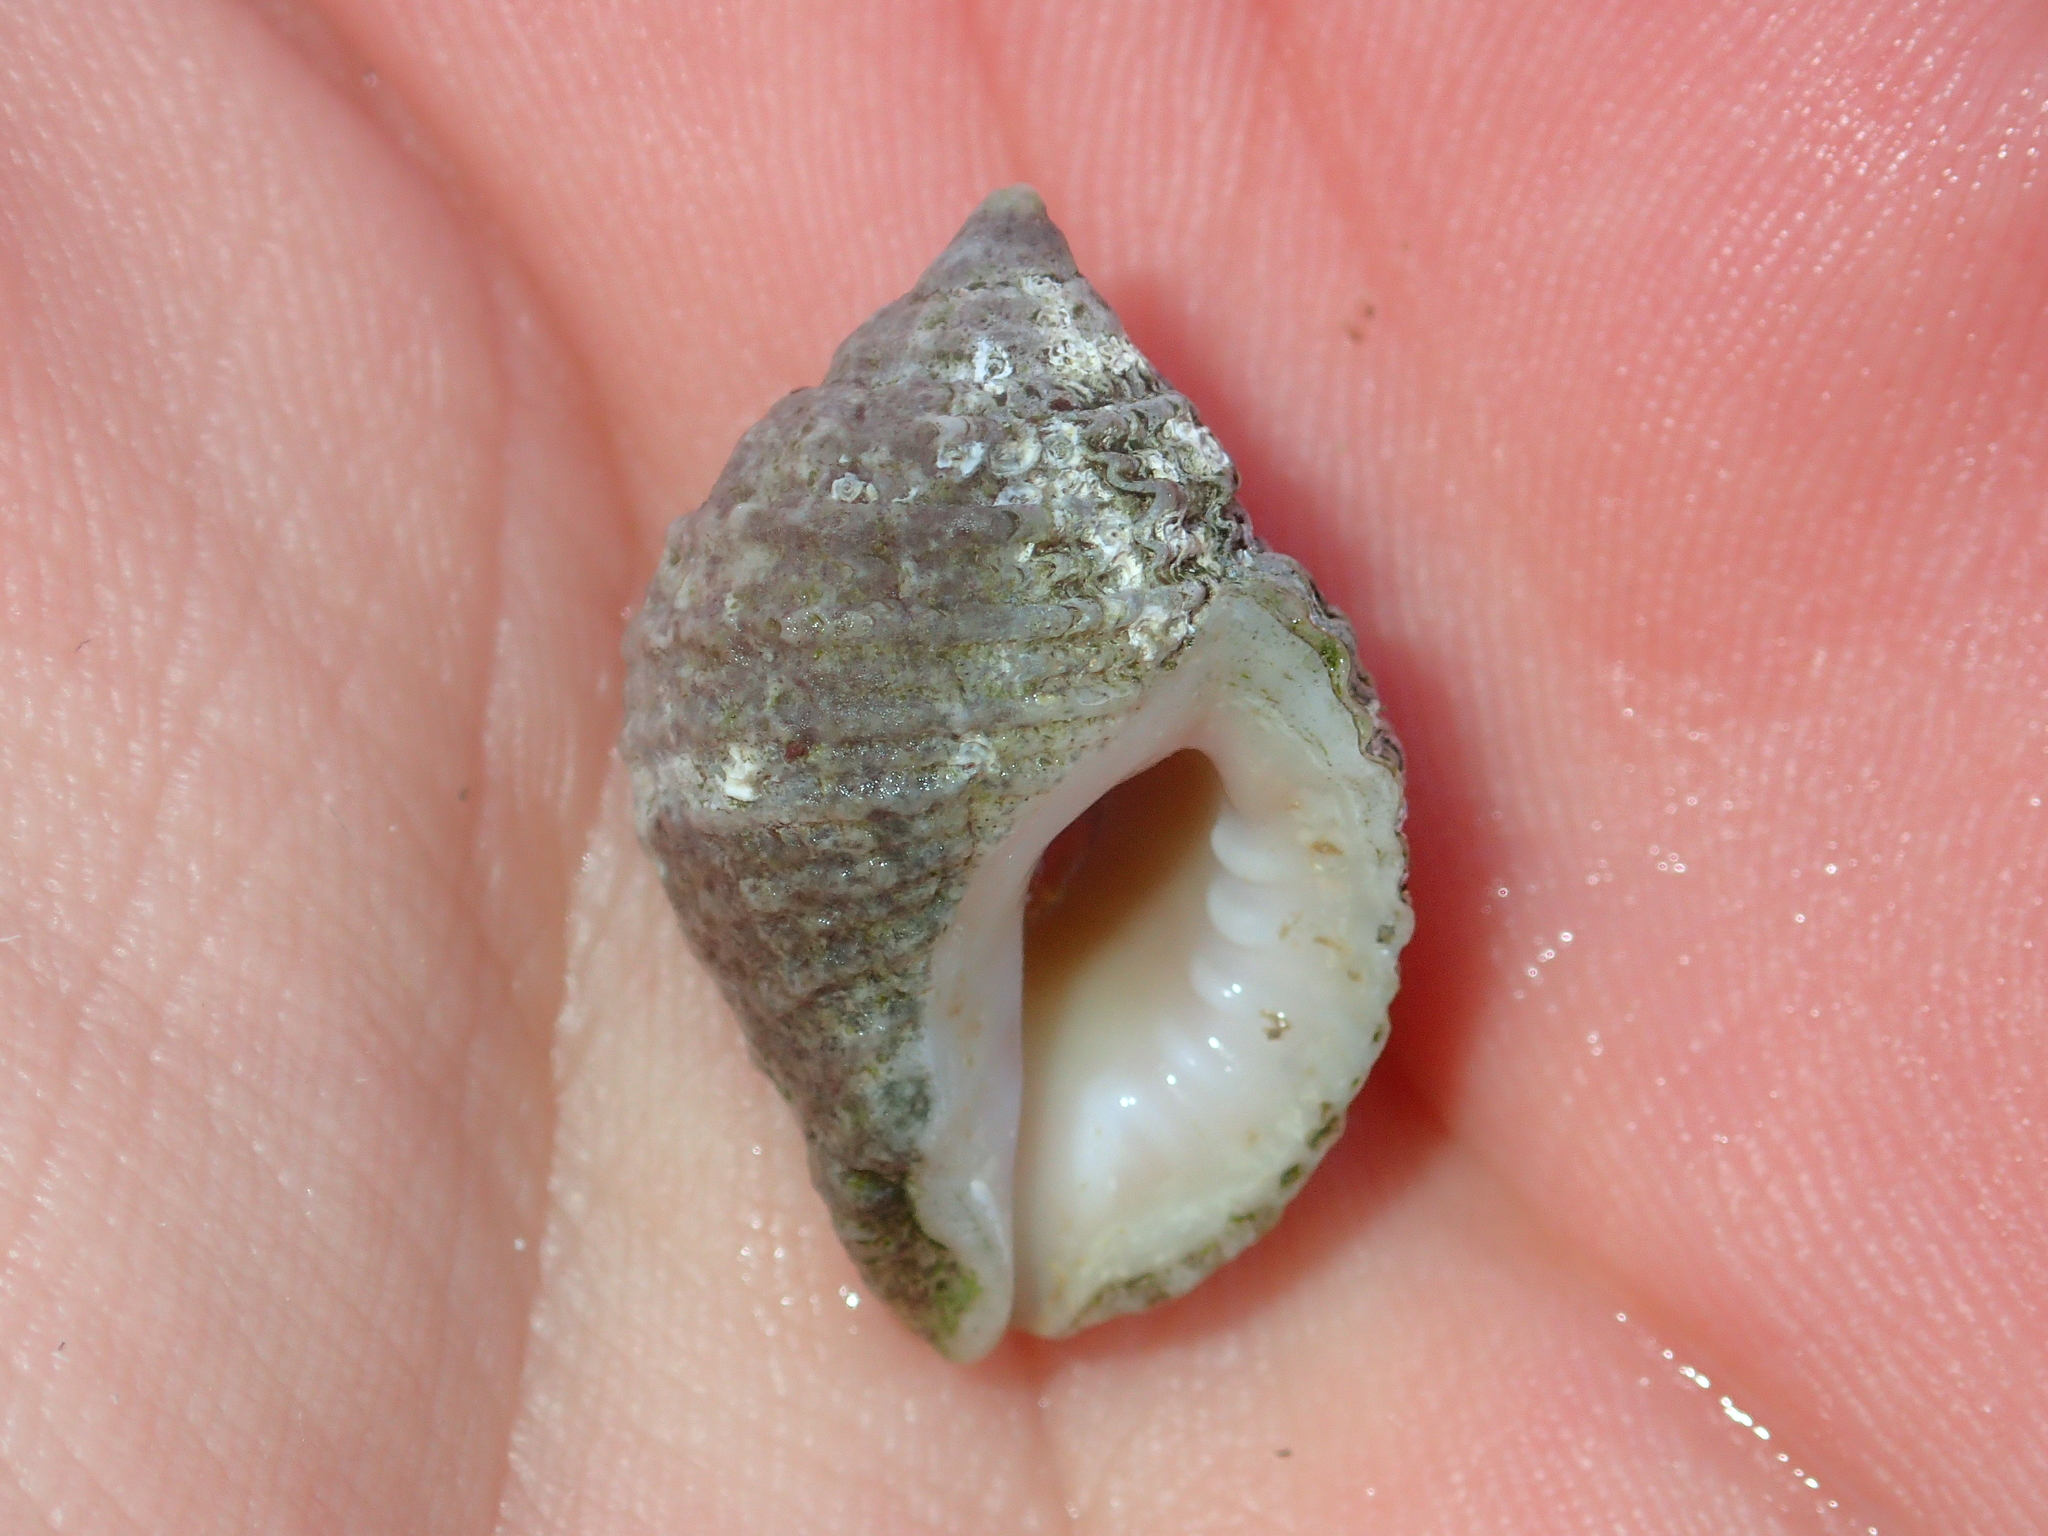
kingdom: Animalia
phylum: Mollusca
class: Gastropoda
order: Neogastropoda
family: Muricidae
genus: Nucella
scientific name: Nucella lapillus
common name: Dog whelk
